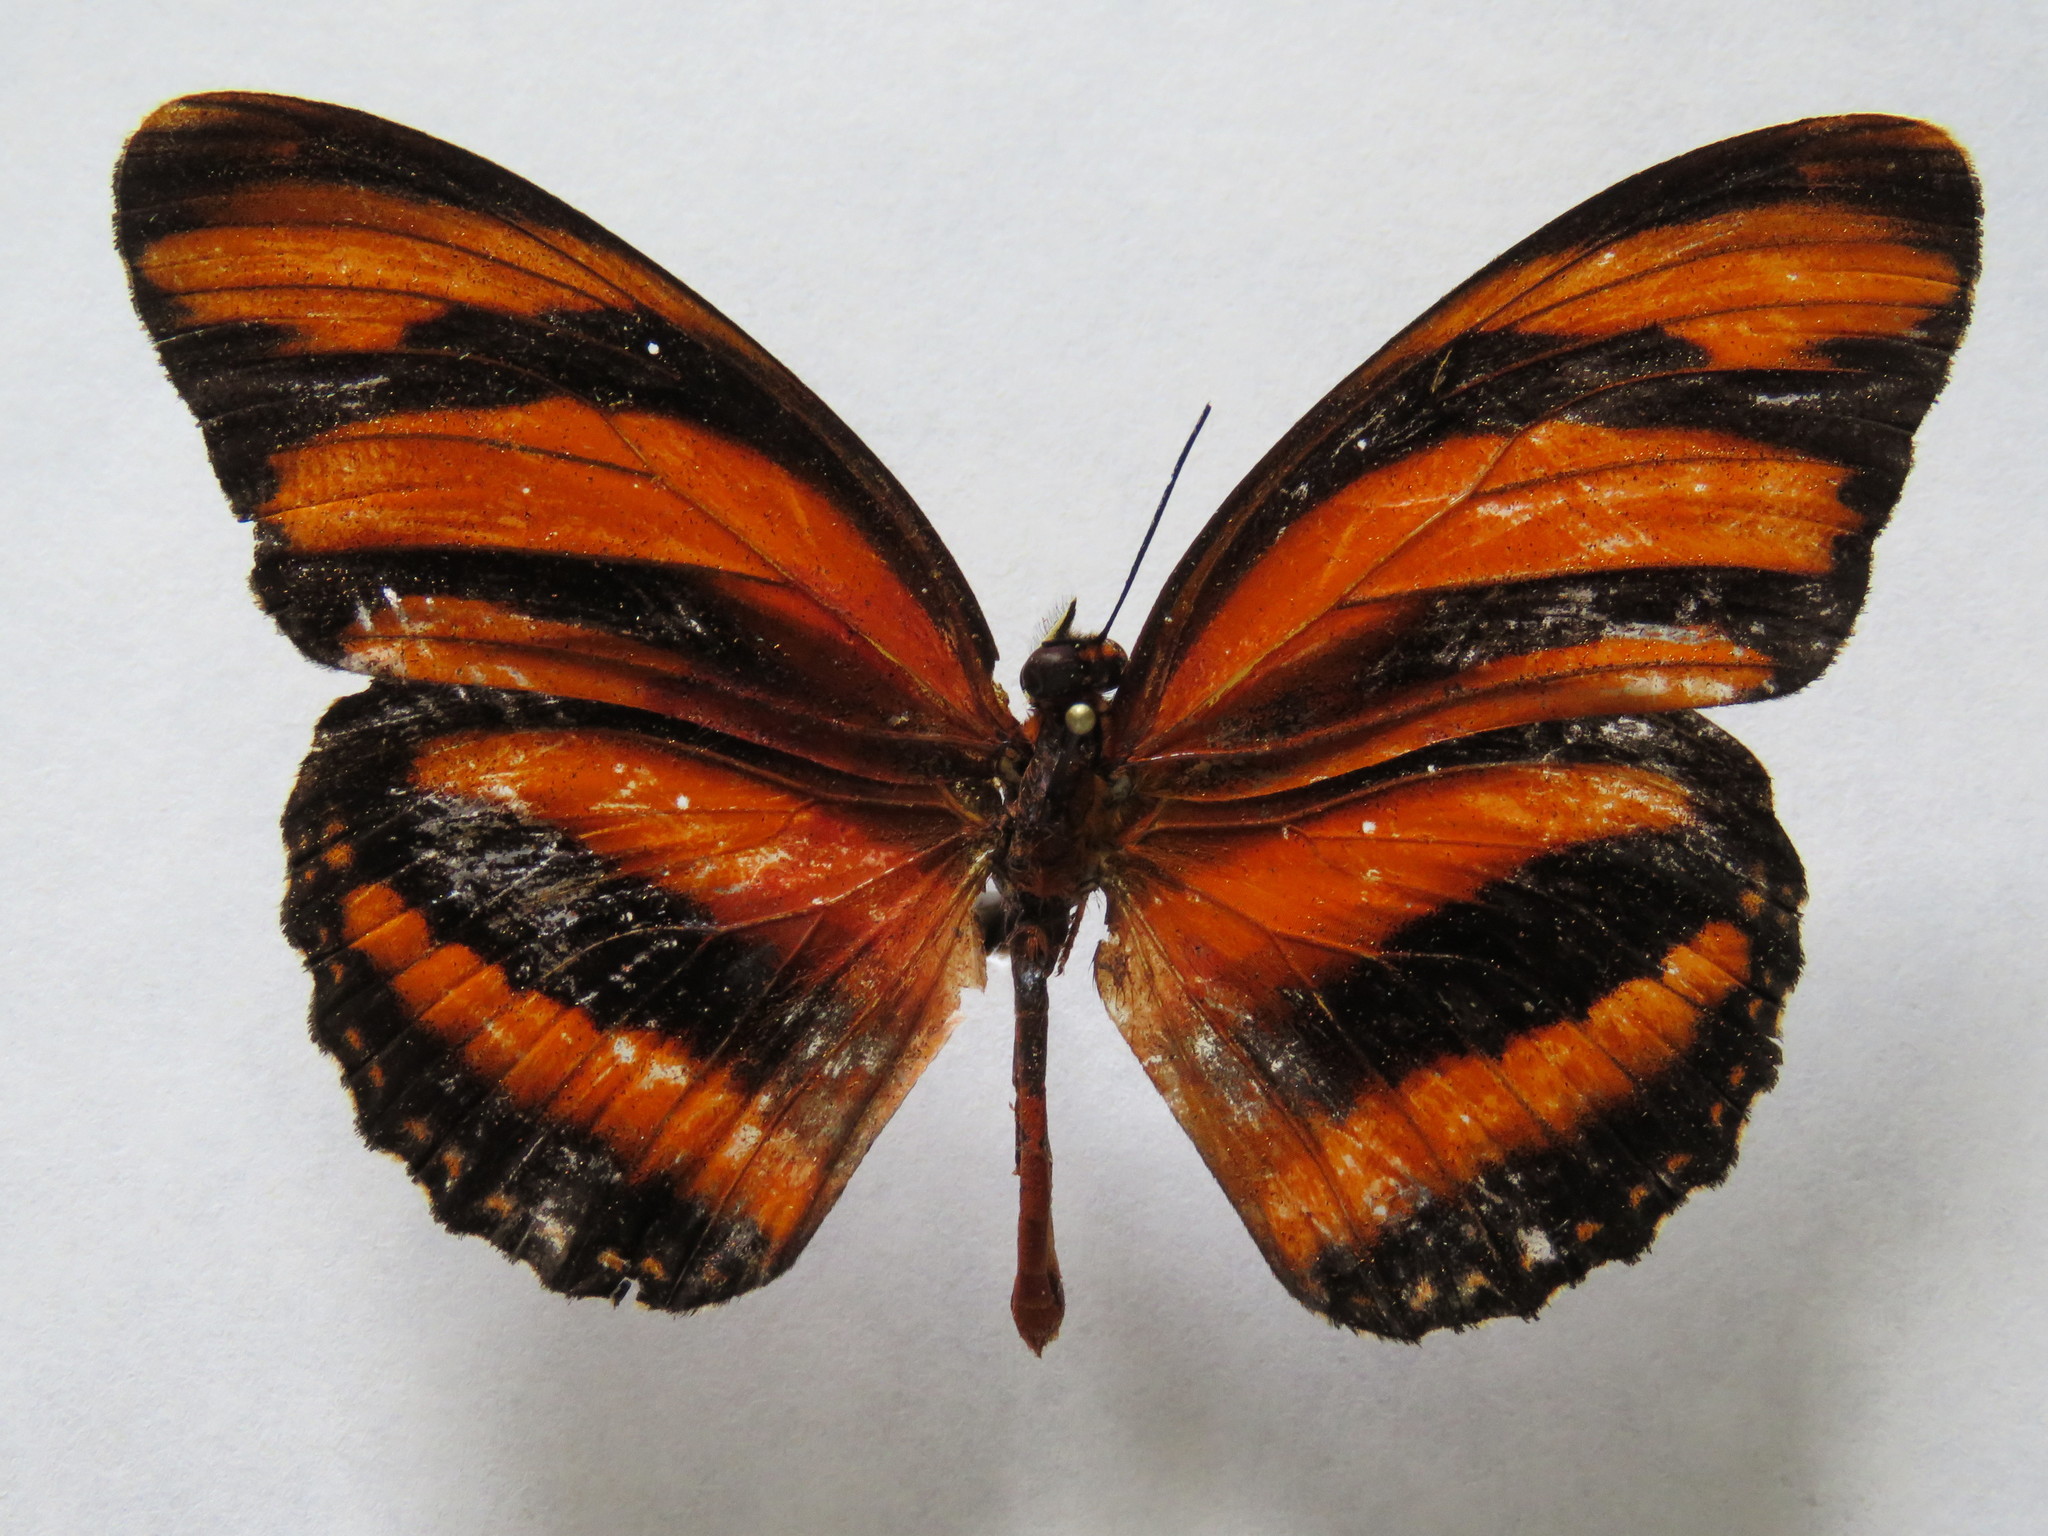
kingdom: Animalia
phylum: Arthropoda
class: Insecta
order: Lepidoptera
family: Nymphalidae
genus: Dryadula
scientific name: Dryadula phaetusa
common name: Banded orange heliconian
